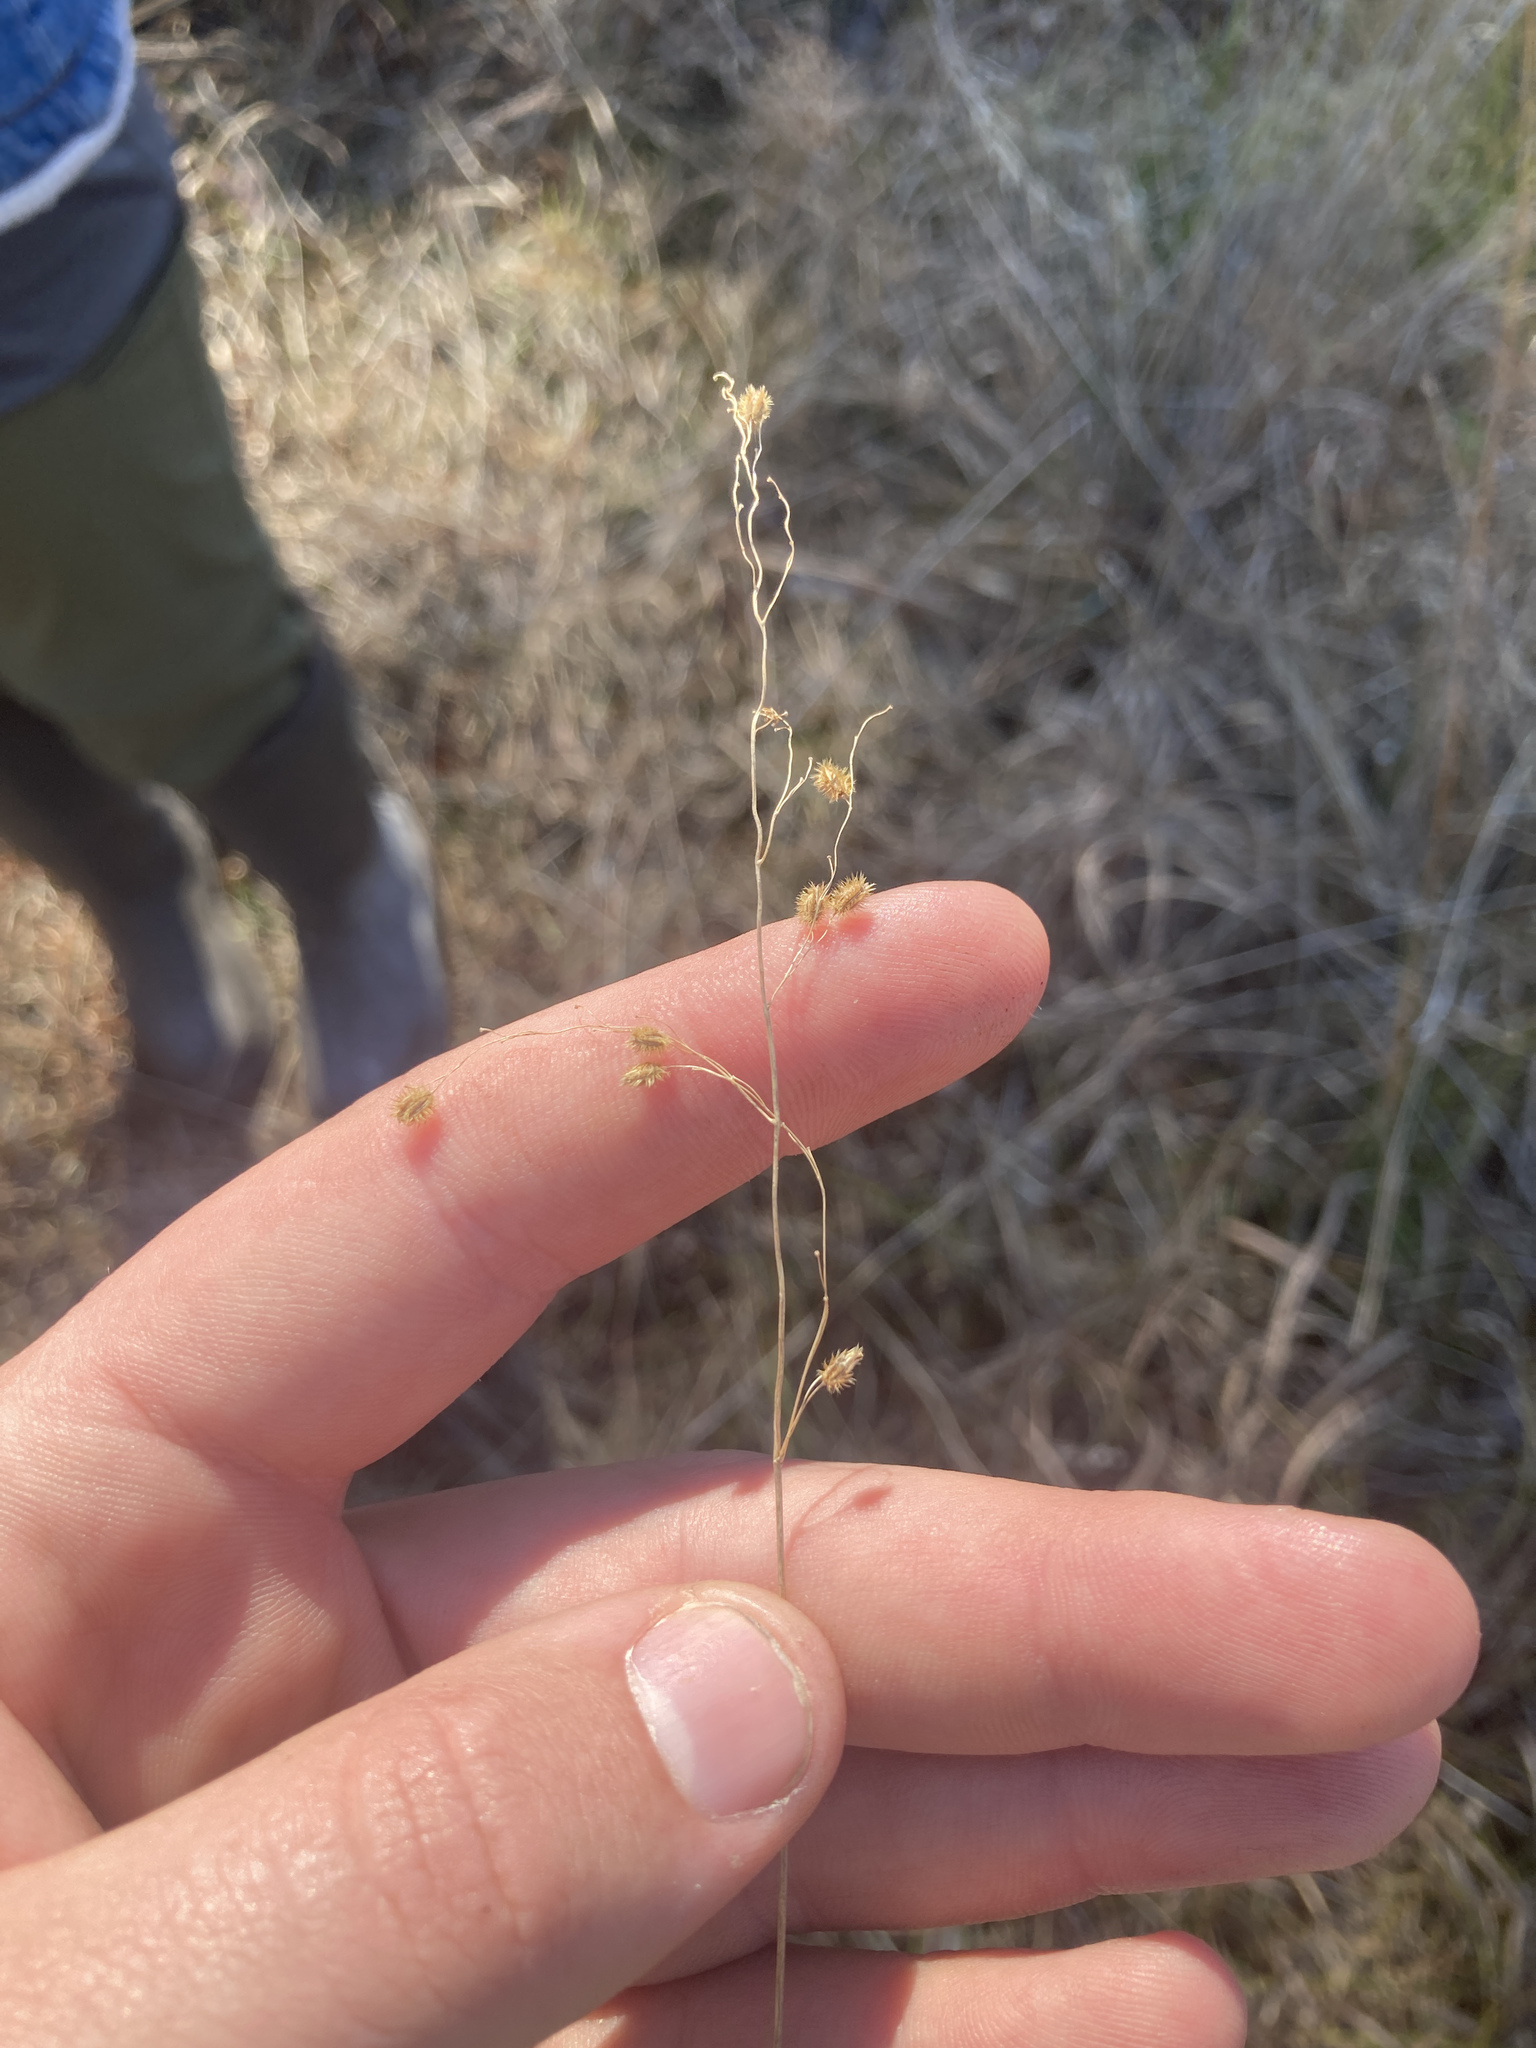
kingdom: Plantae
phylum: Tracheophyta
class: Liliopsida
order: Poales
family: Poaceae
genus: Anthenantia
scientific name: Anthenantia villosa
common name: Green silkyscale
